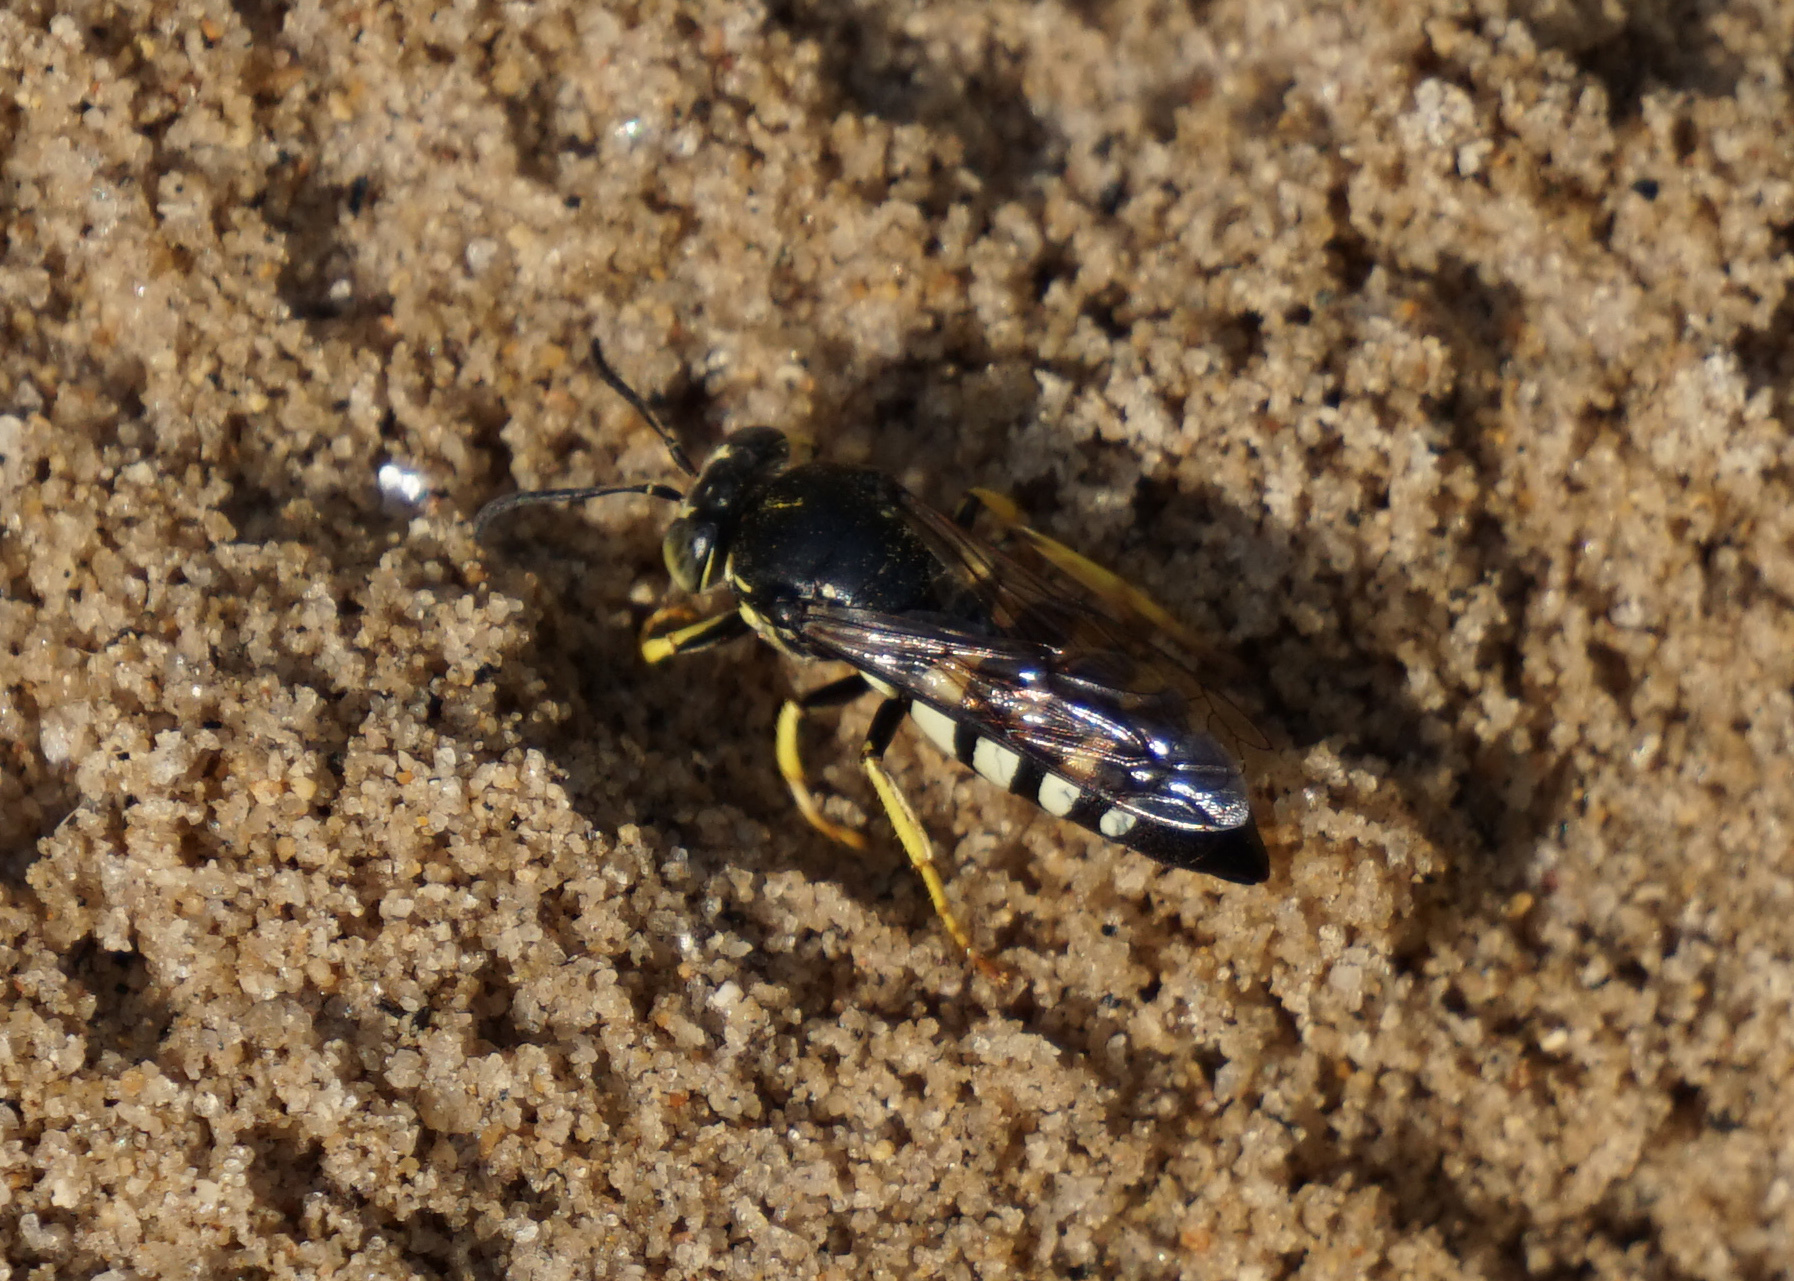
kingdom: Animalia
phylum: Arthropoda
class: Insecta
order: Hymenoptera
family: Crabronidae
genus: Bicyrtes
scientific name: Bicyrtes quadrifasciatus
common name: Four-banded stink bug hunter wasp
